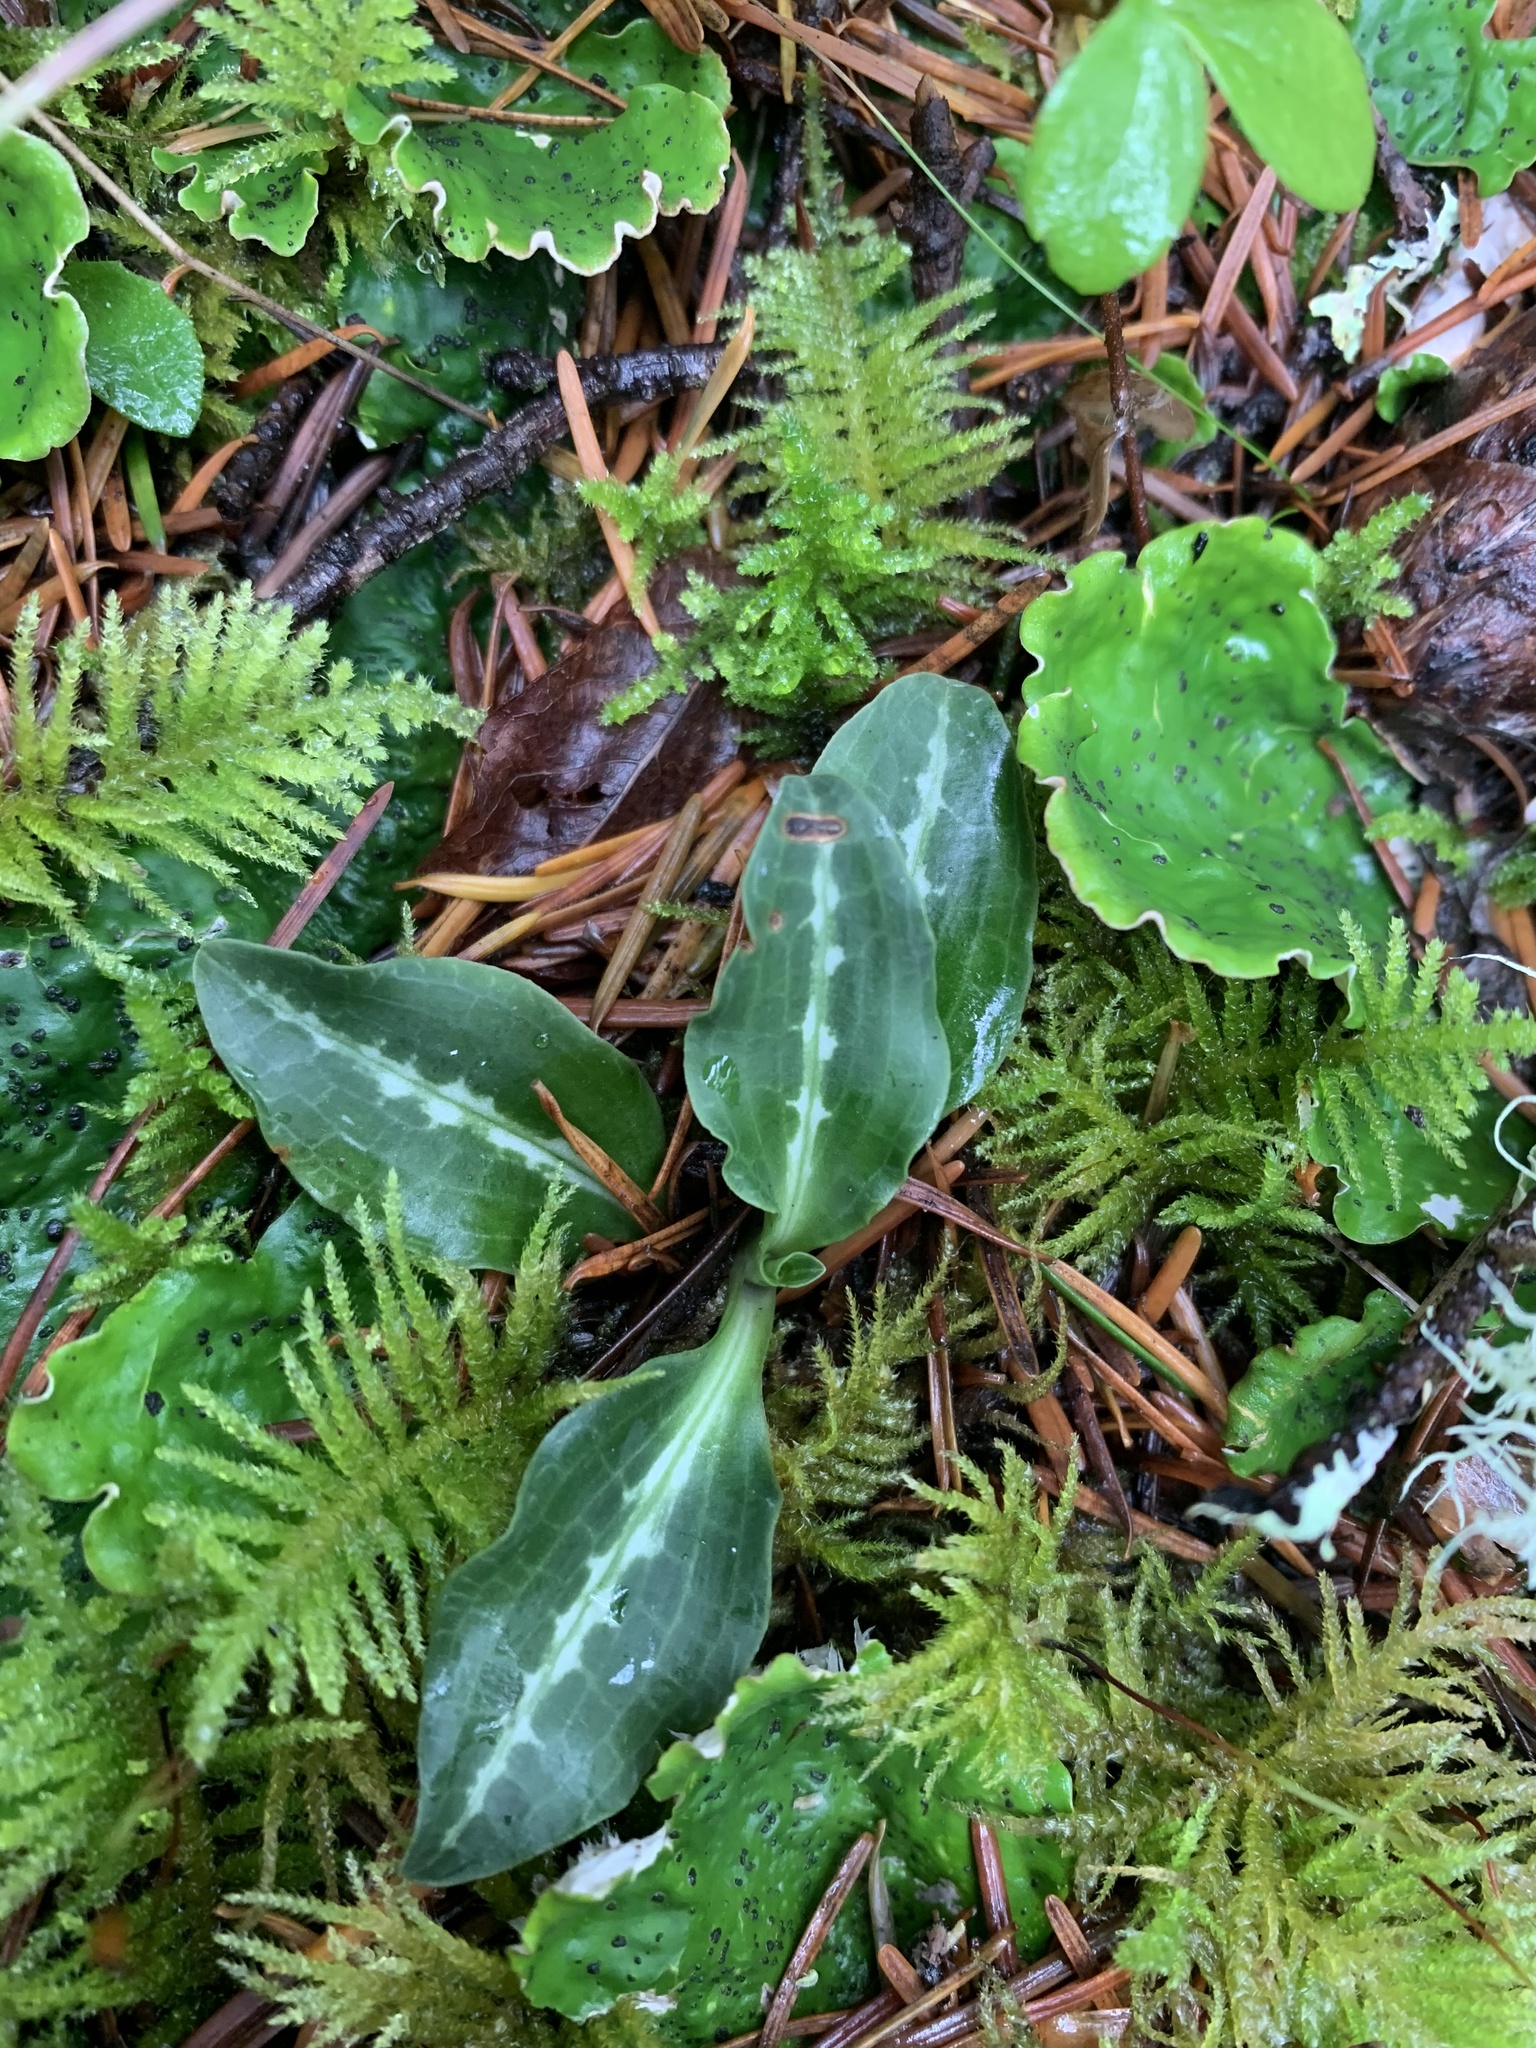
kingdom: Plantae
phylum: Tracheophyta
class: Liliopsida
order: Asparagales
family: Orchidaceae
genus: Goodyera
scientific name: Goodyera oblongifolia
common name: Giant rattlesnake-plantain
